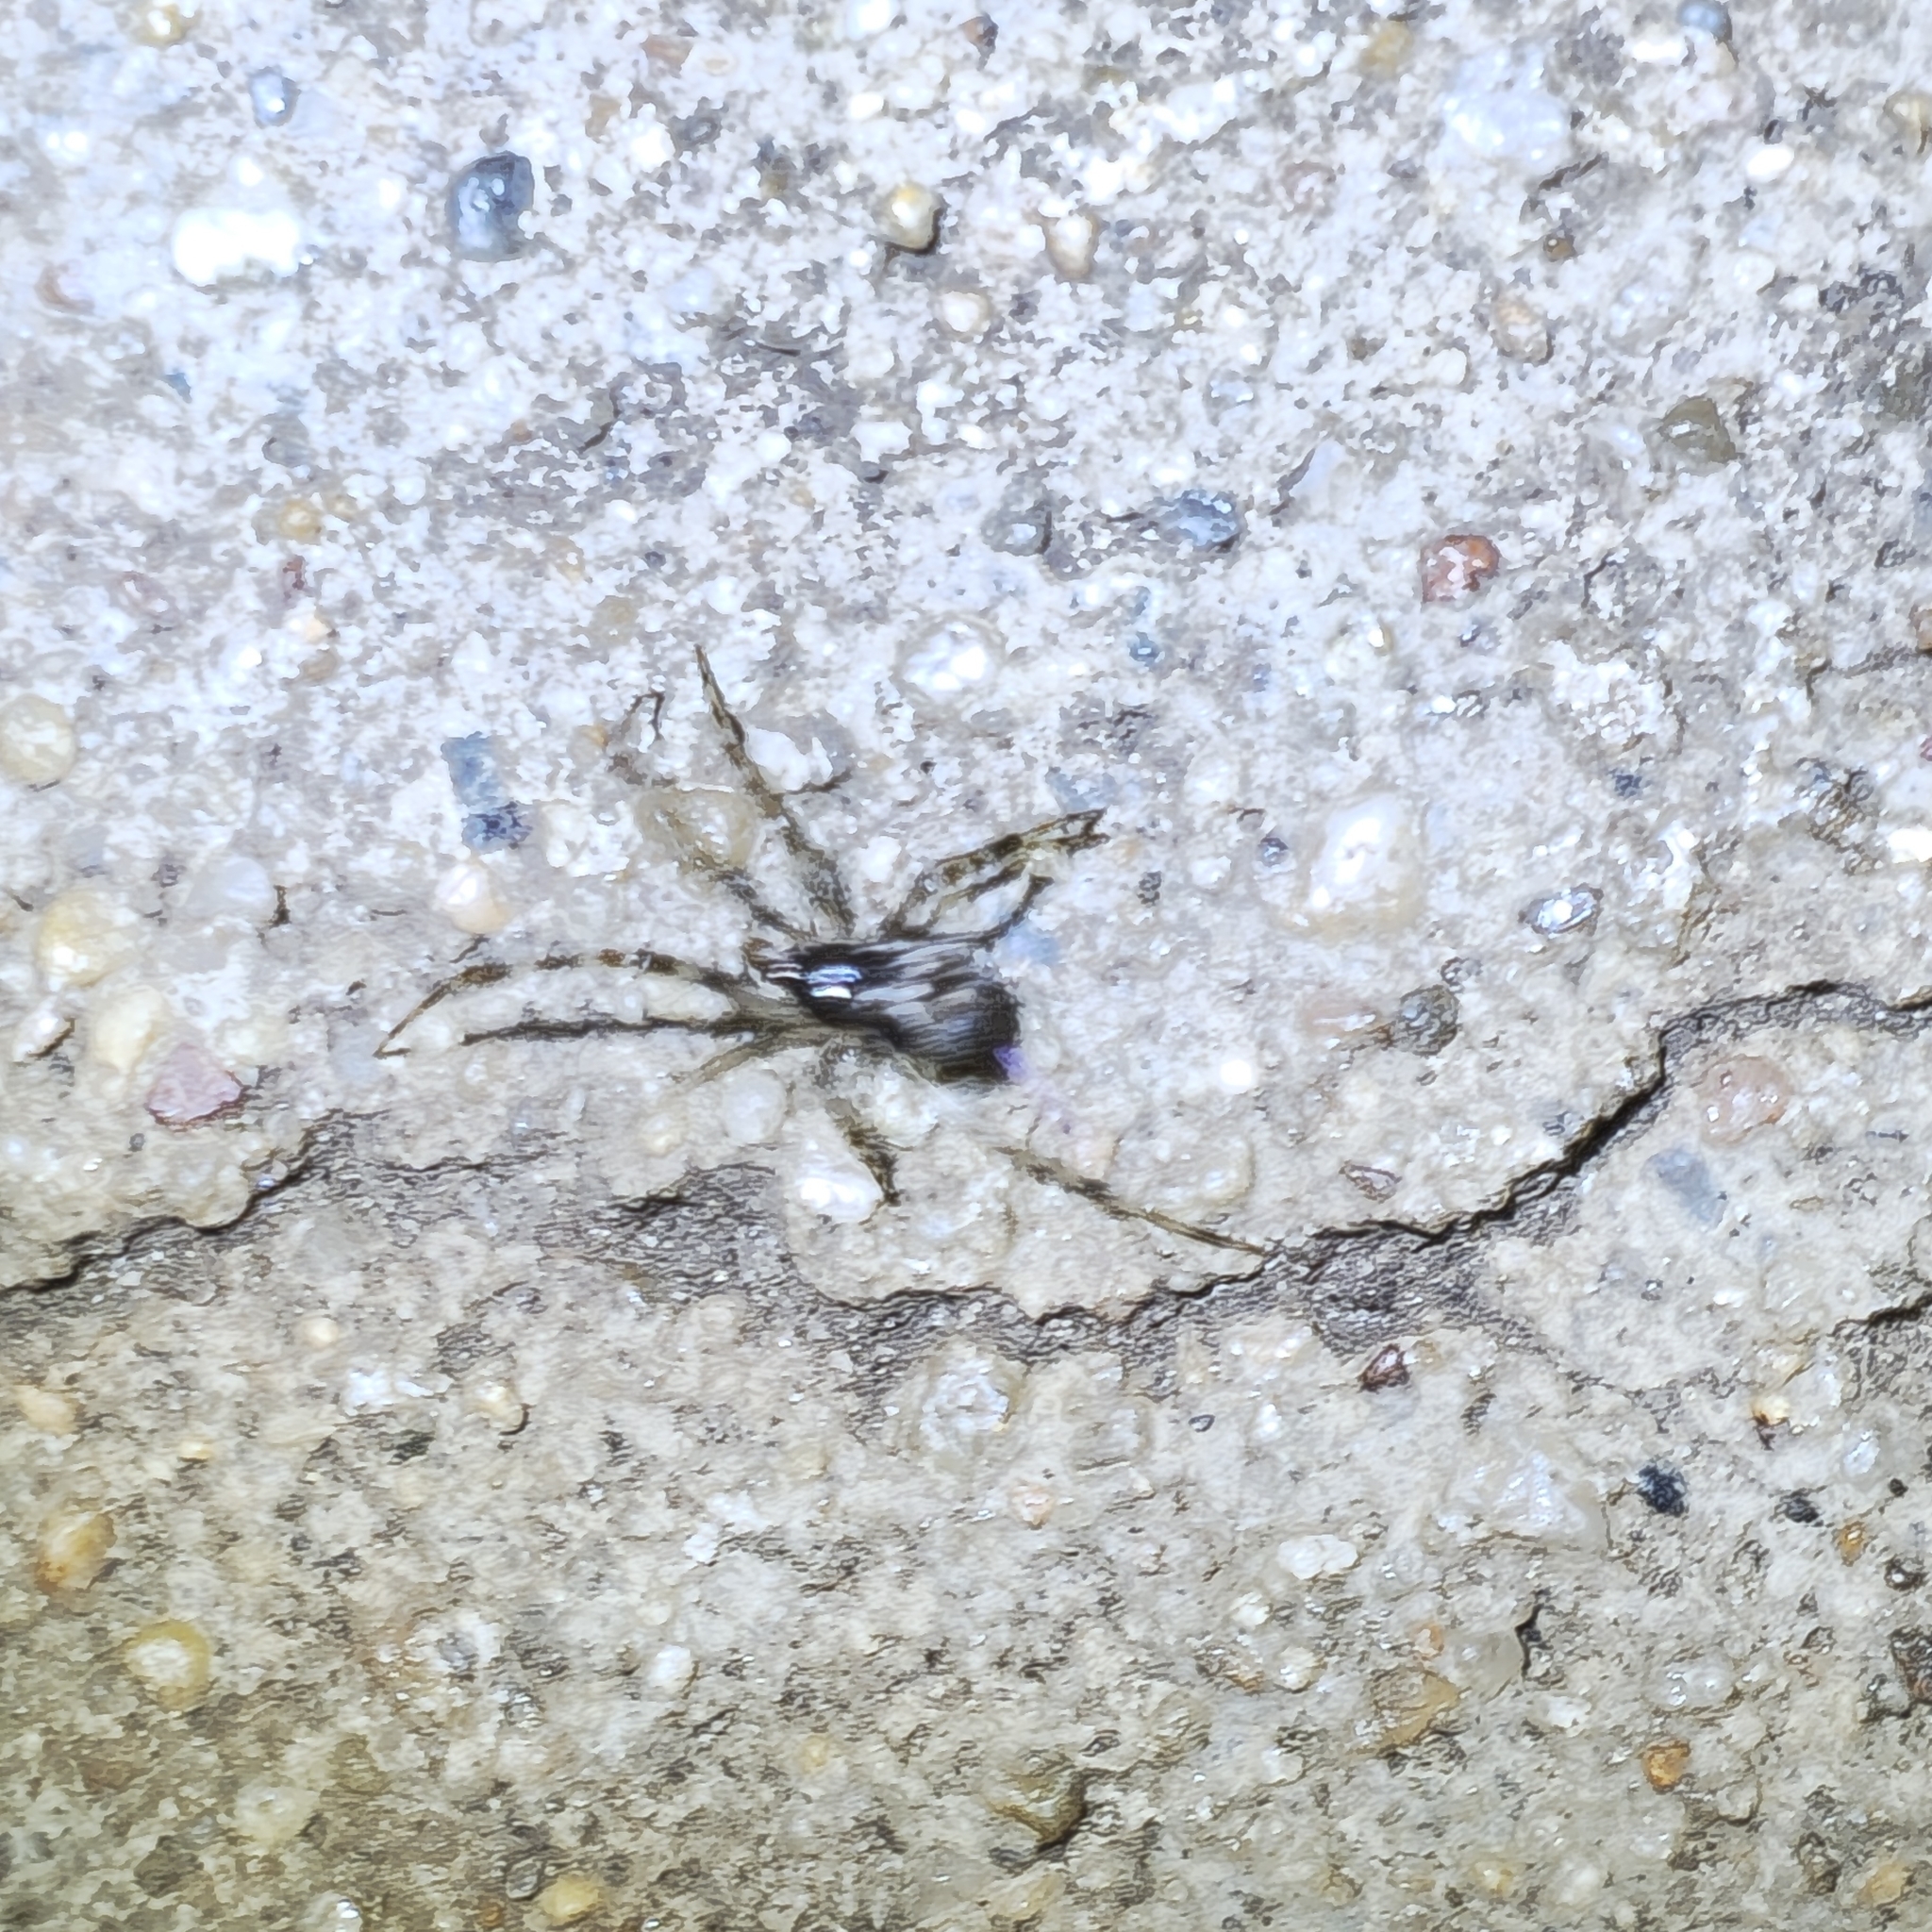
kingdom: Animalia
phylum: Arthropoda
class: Arachnida
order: Araneae
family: Theridiidae
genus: Parasteatoda
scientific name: Parasteatoda tepidariorum
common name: Common house spider
